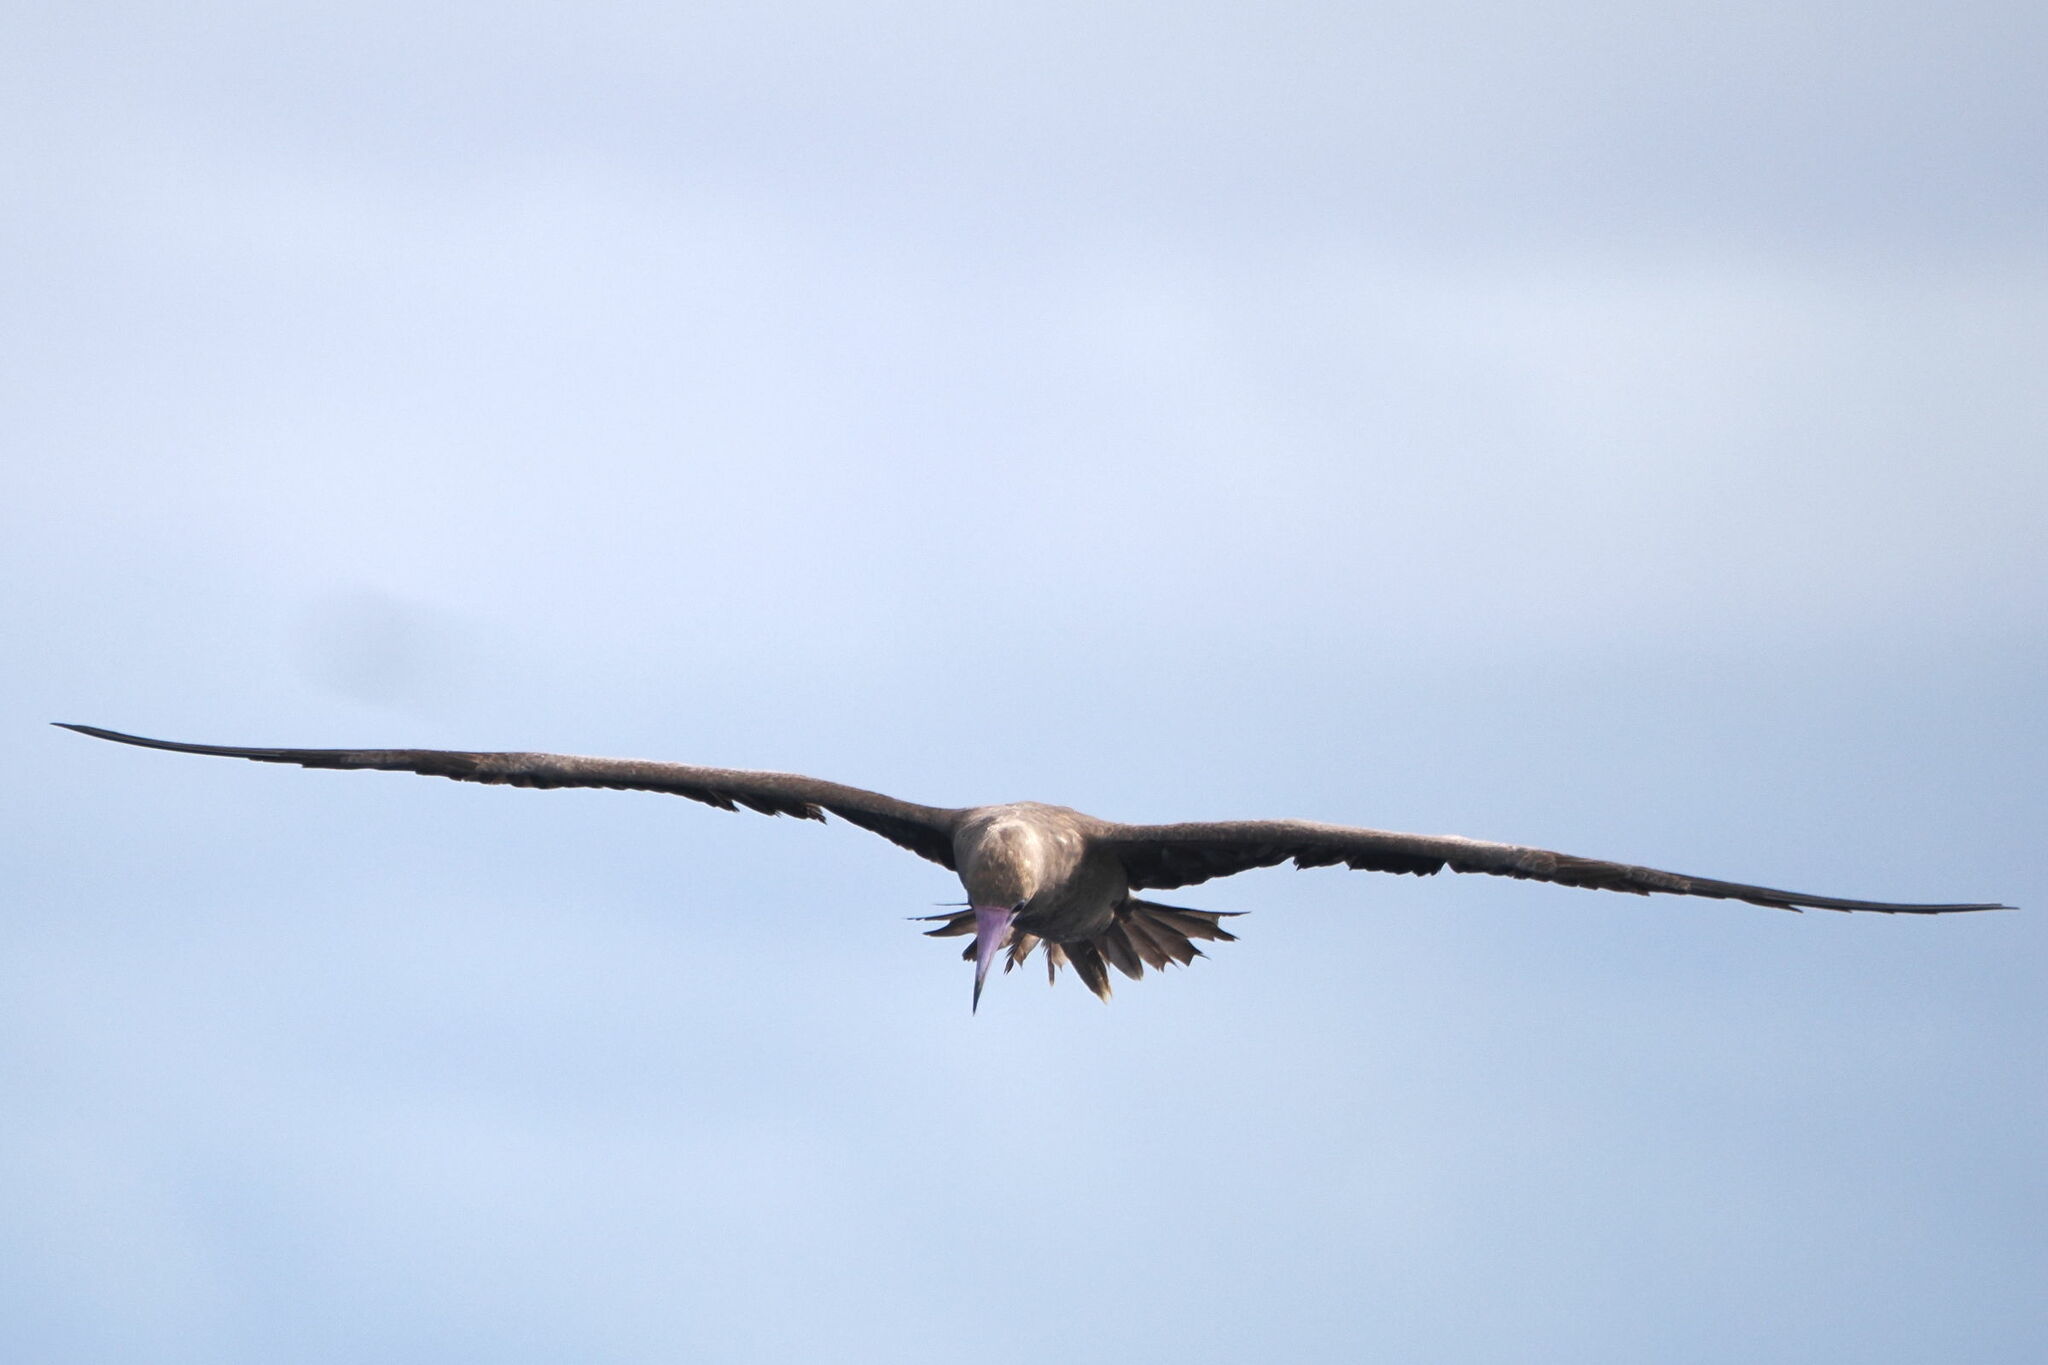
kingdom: Animalia
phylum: Chordata
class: Aves
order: Suliformes
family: Sulidae
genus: Sula
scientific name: Sula sula
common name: Red-footed booby
